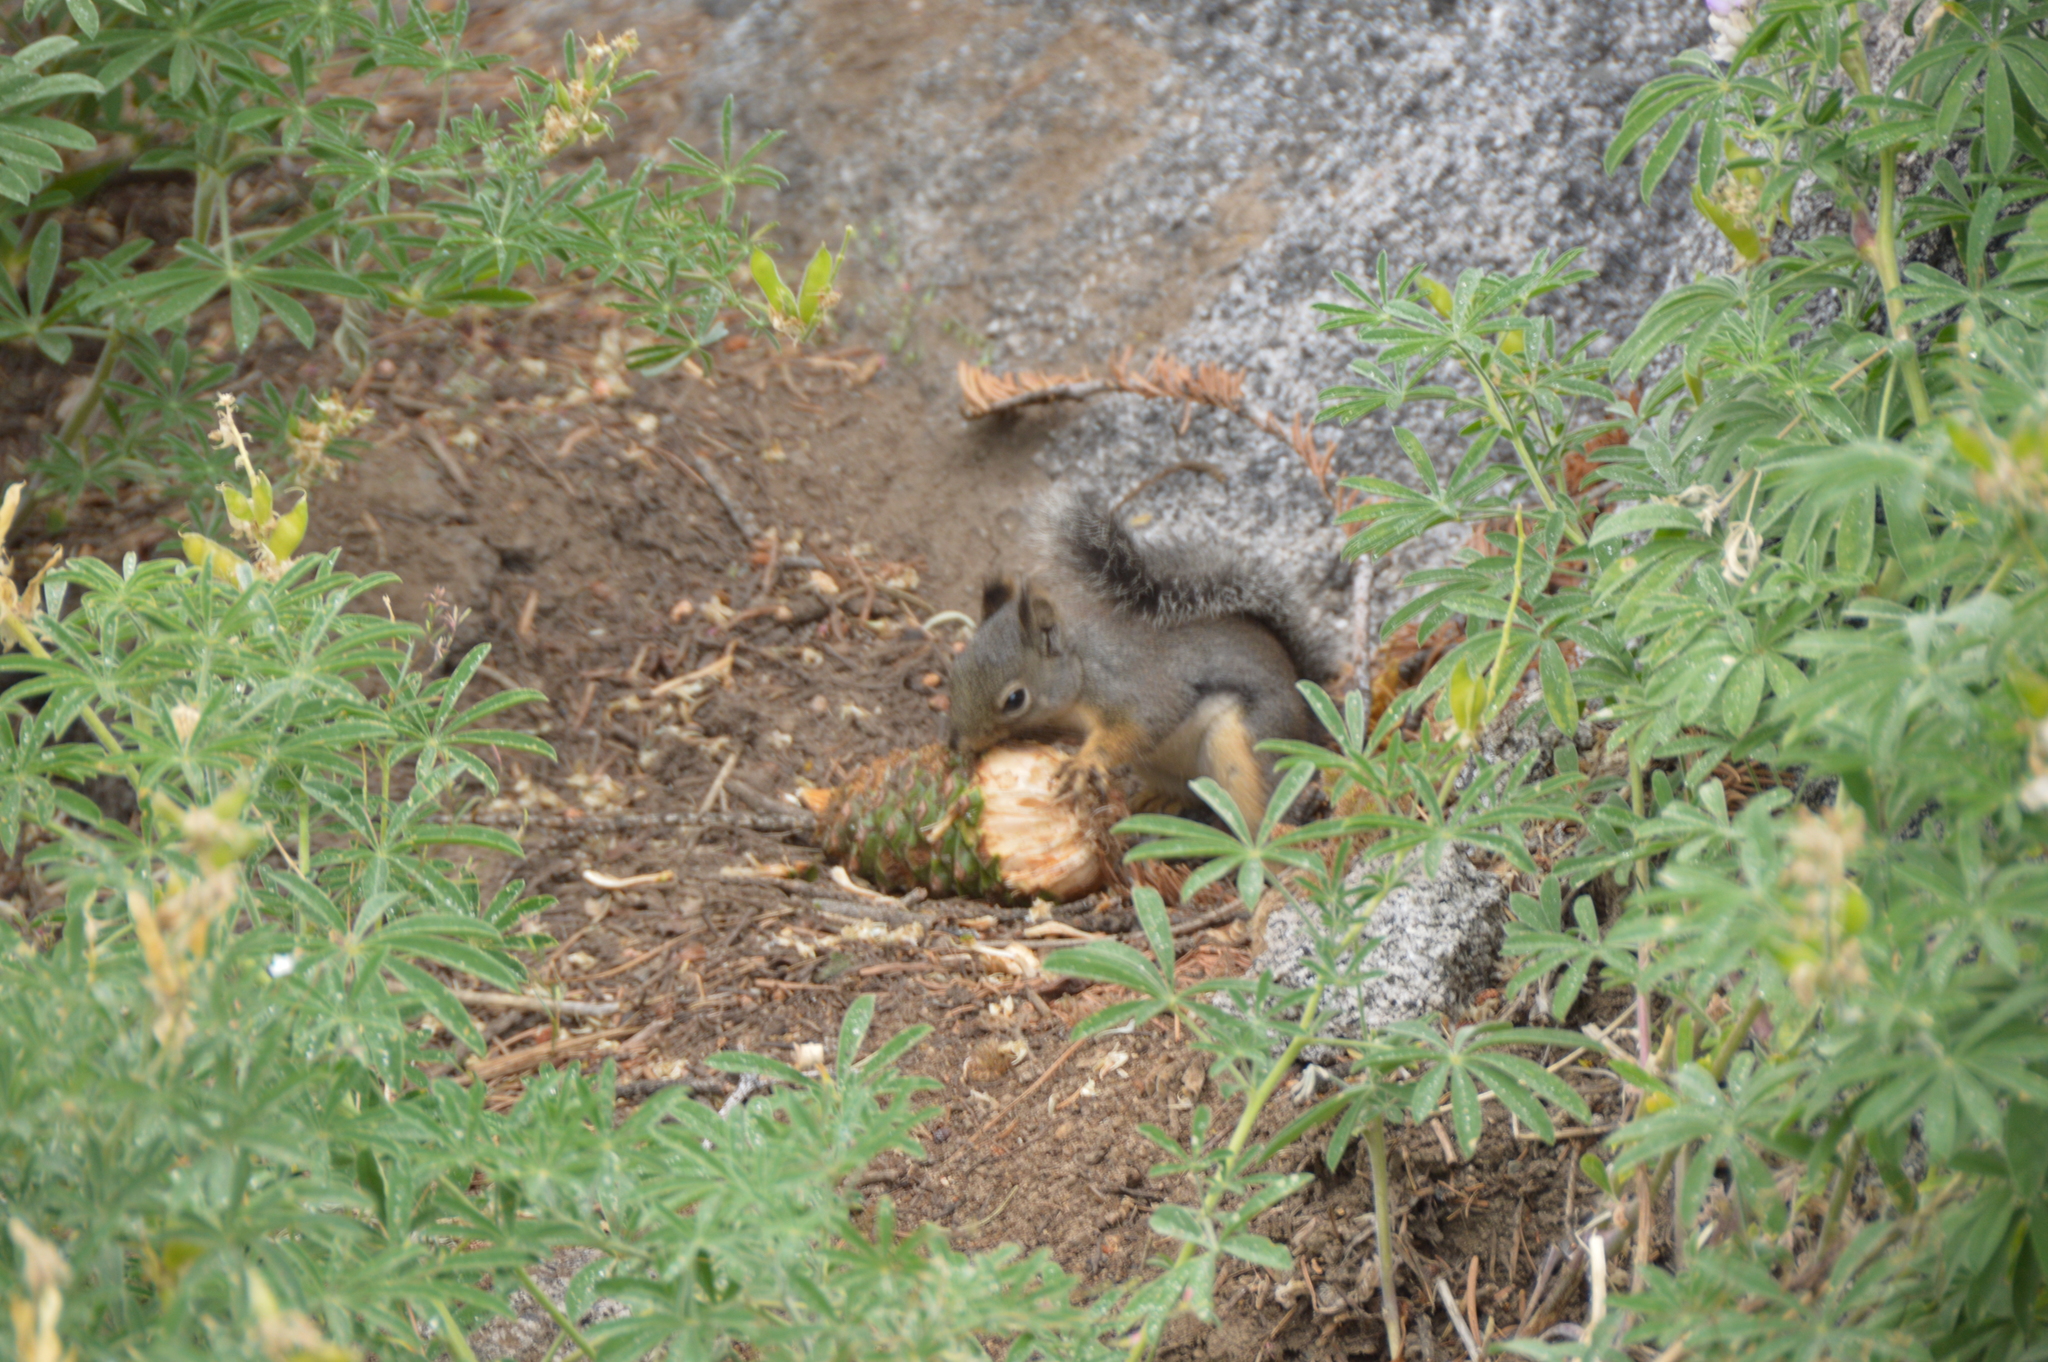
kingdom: Animalia
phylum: Chordata
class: Mammalia
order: Rodentia
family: Sciuridae
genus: Tamiasciurus
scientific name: Tamiasciurus douglasii
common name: Douglas's squirrel
